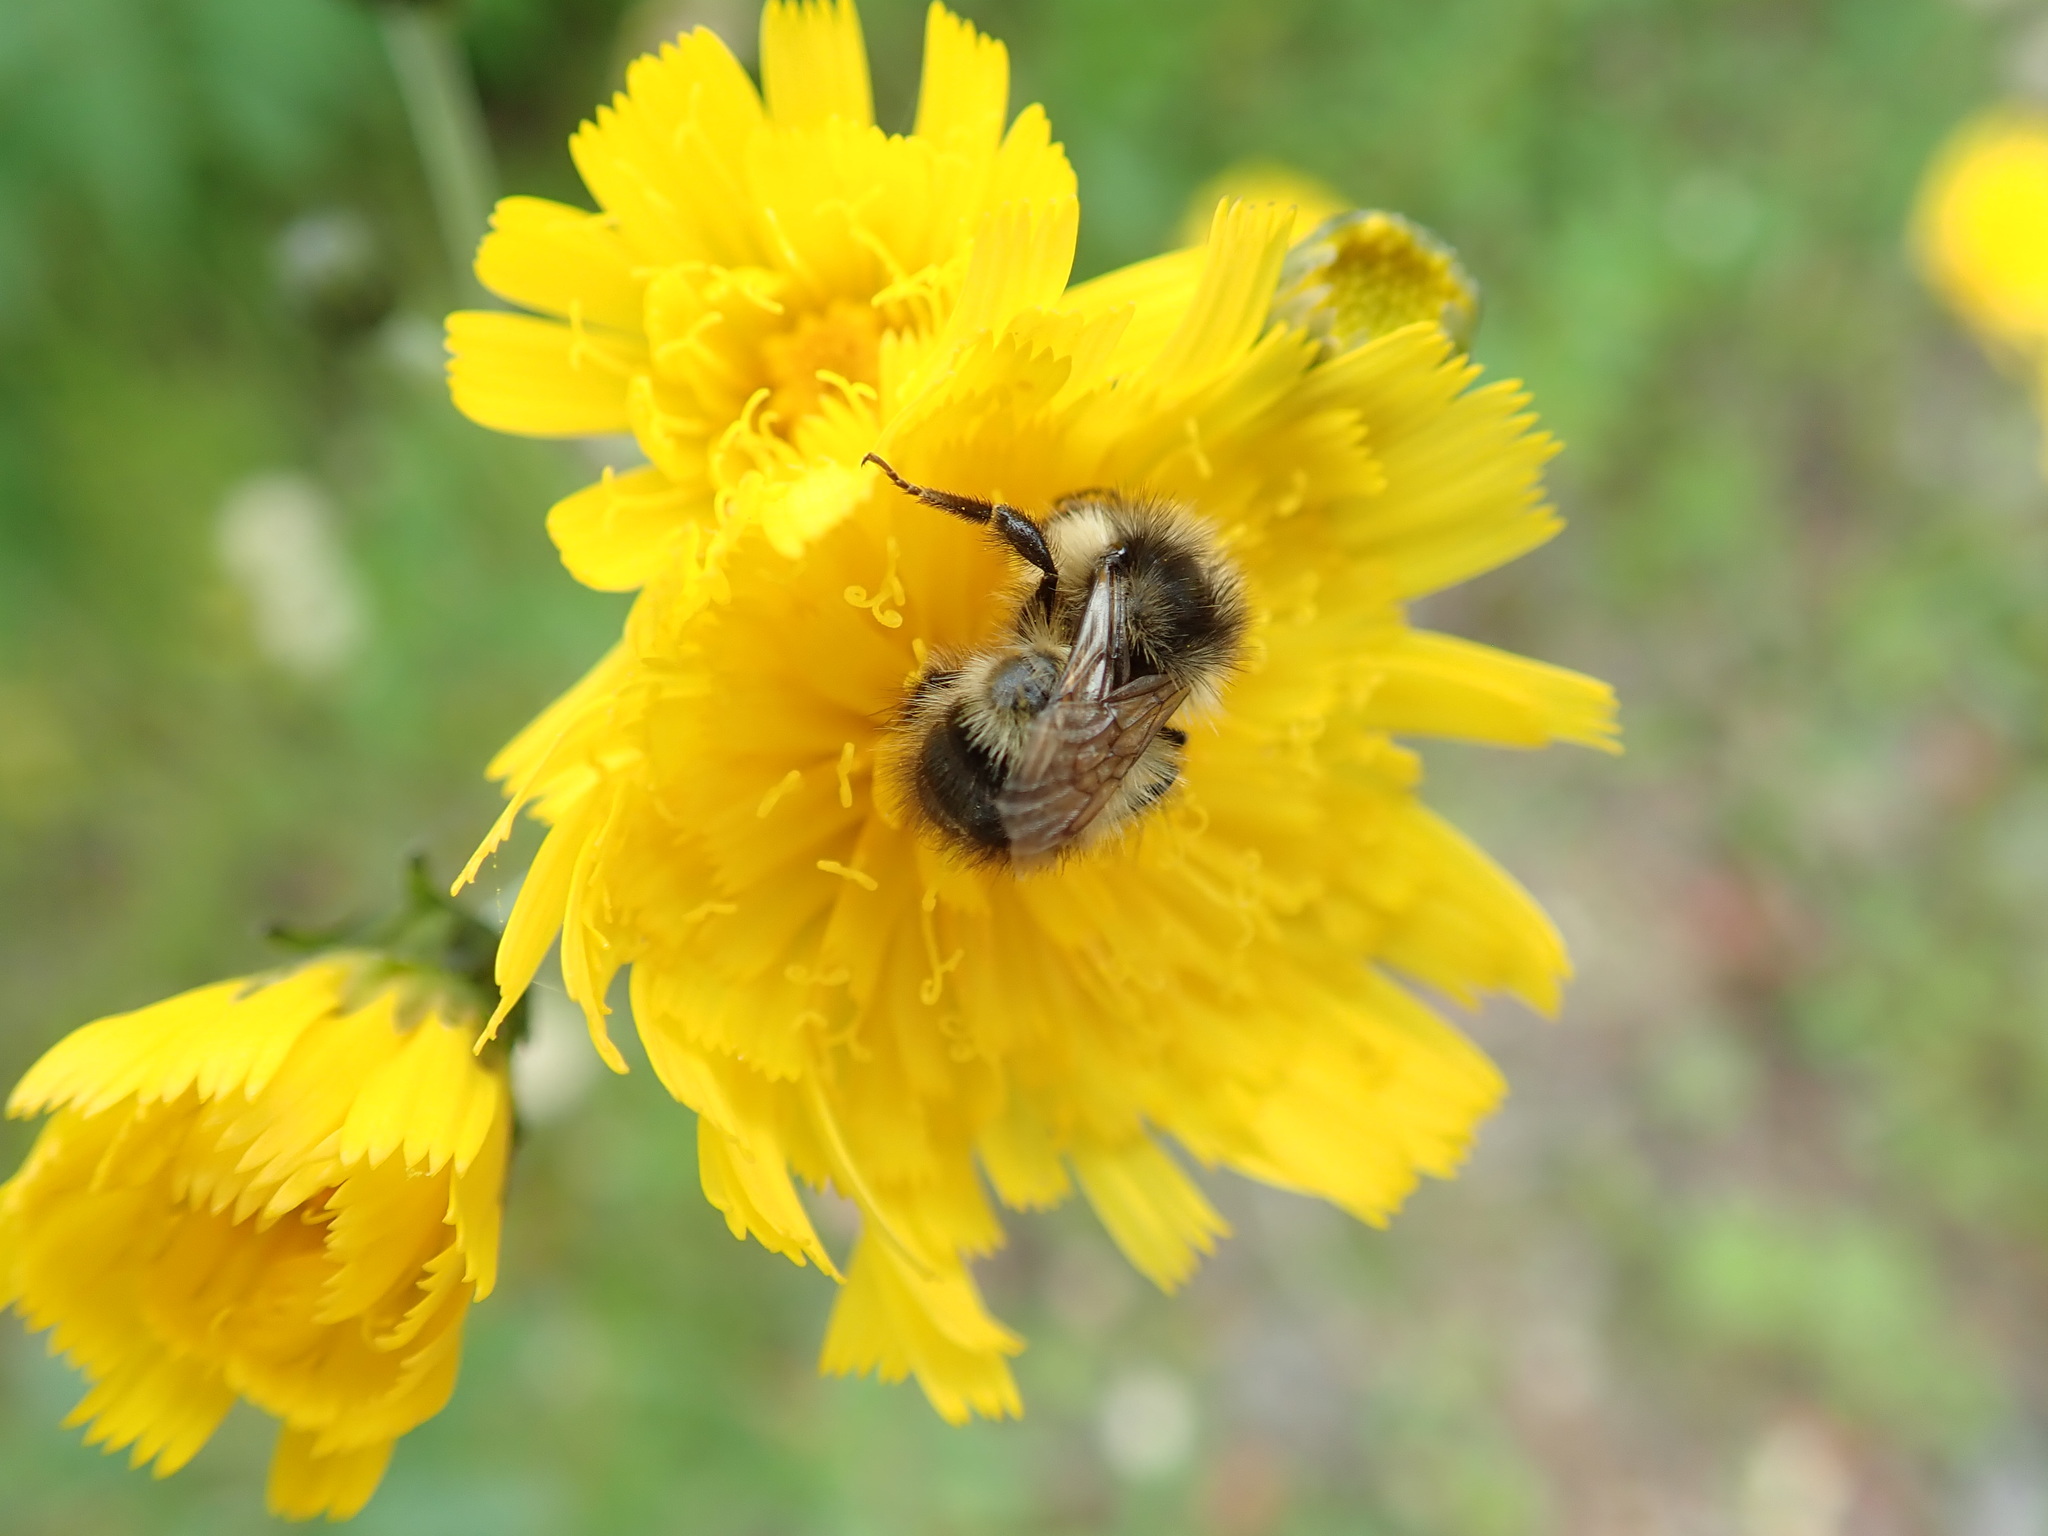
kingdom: Animalia
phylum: Arthropoda
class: Insecta
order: Hymenoptera
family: Apidae
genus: Bombus
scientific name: Bombus flavifrons
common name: Yellow head bumble bee
